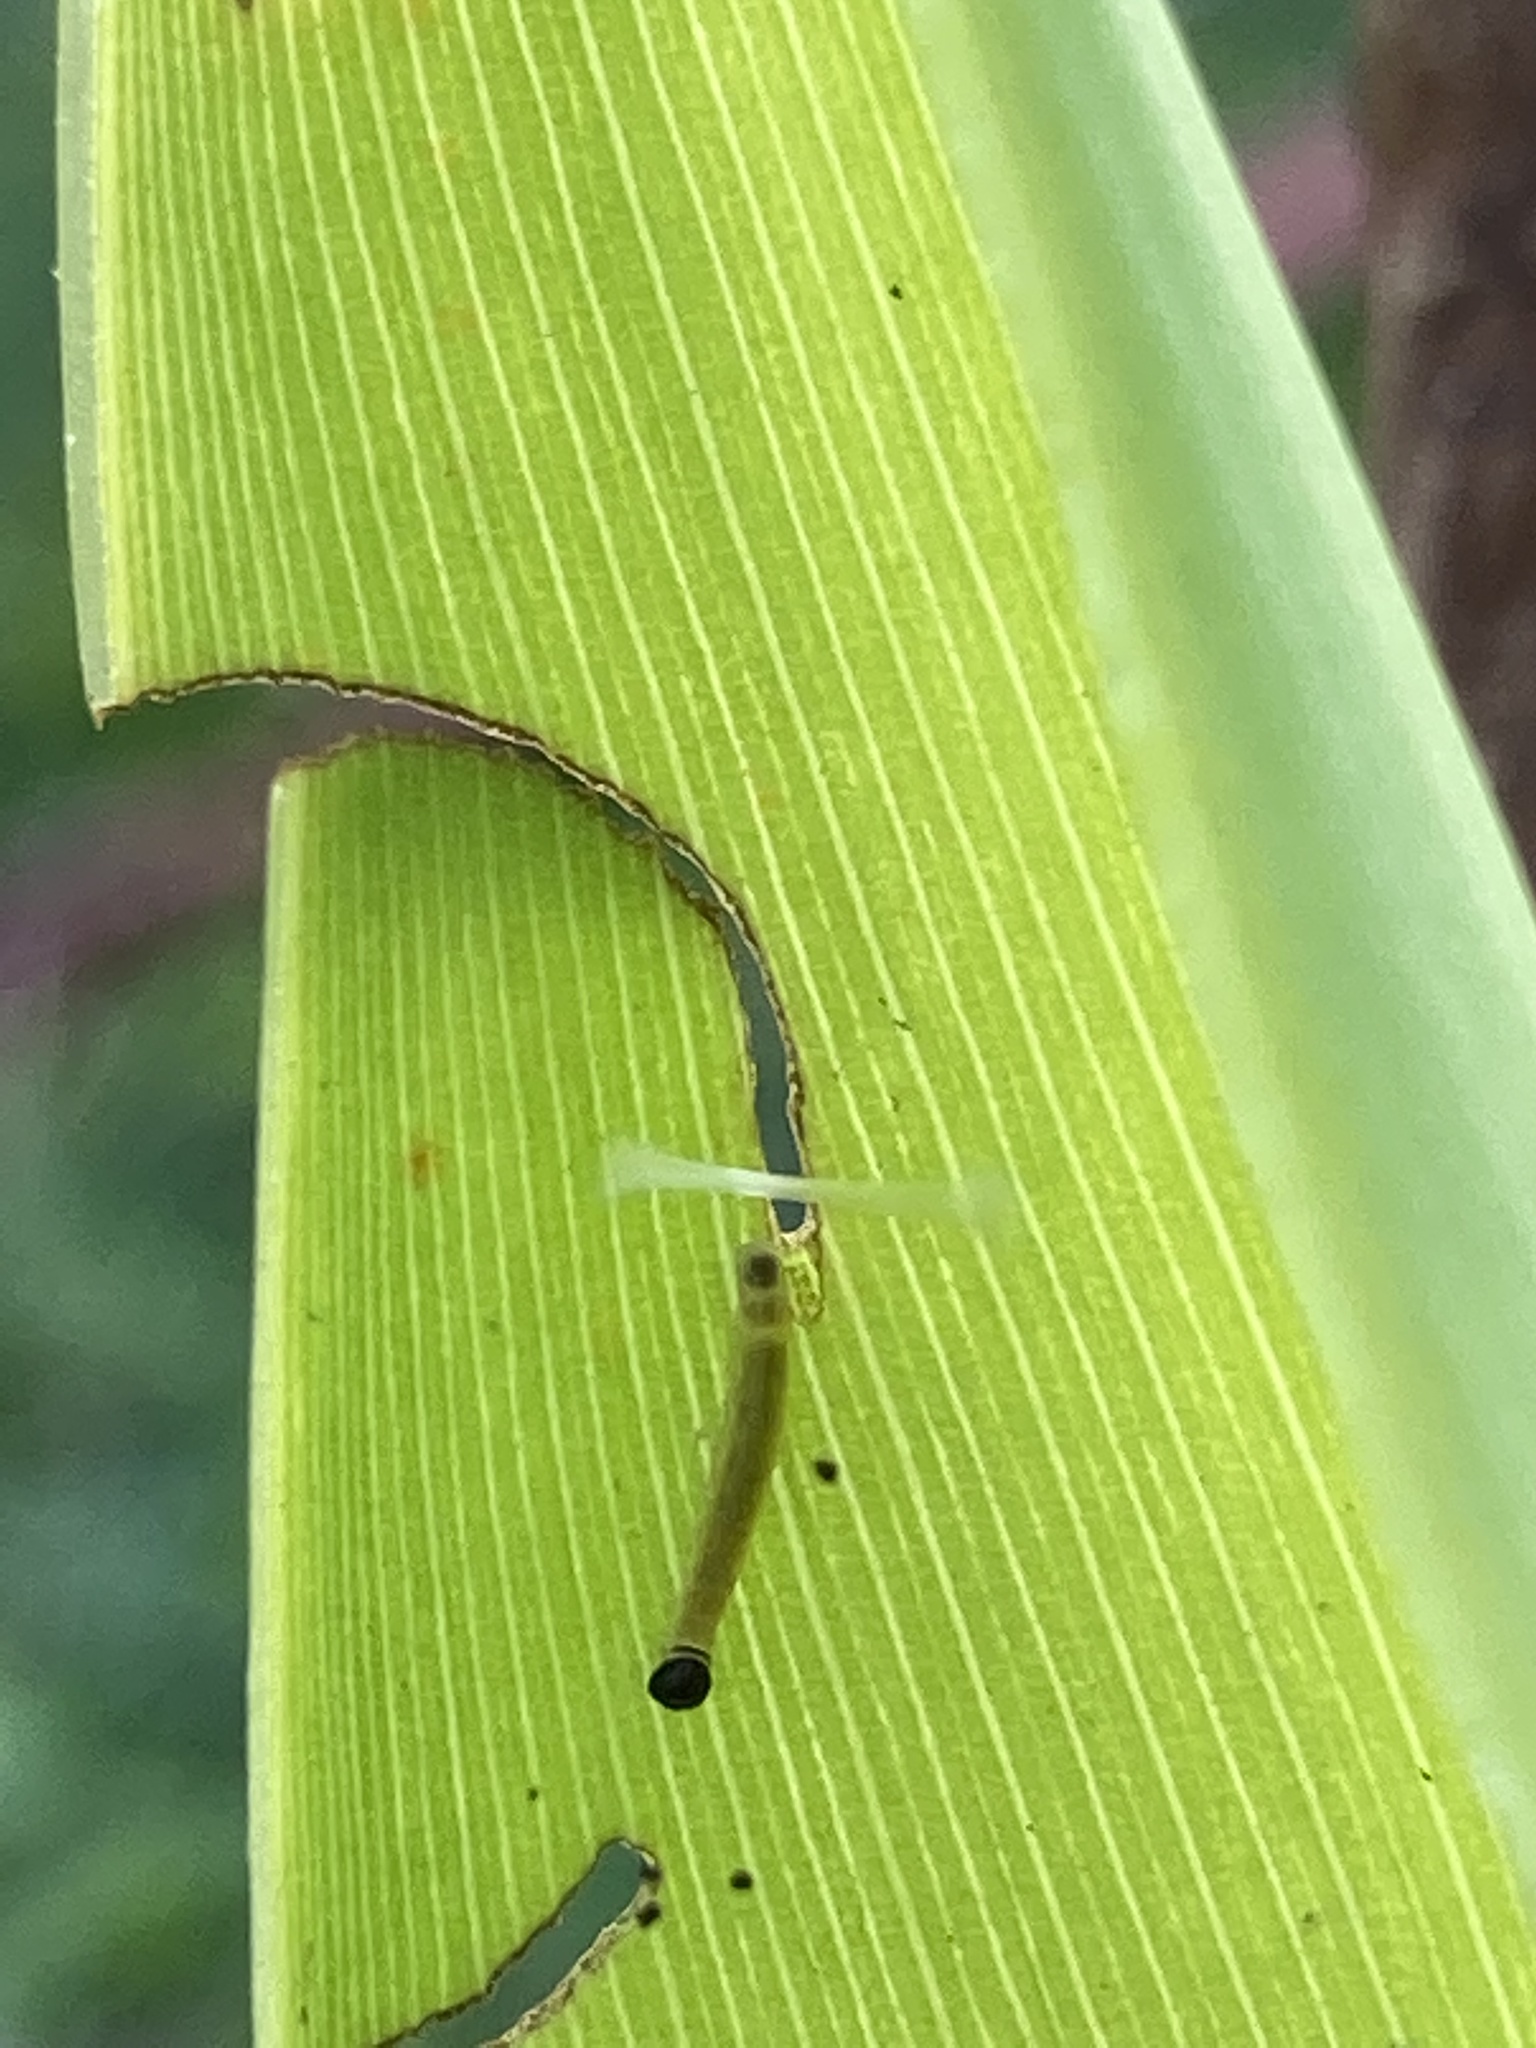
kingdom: Animalia
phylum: Arthropoda
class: Insecta
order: Lepidoptera
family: Hesperiidae
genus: Calpodes
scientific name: Calpodes ethlius
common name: Brazilian skipper
